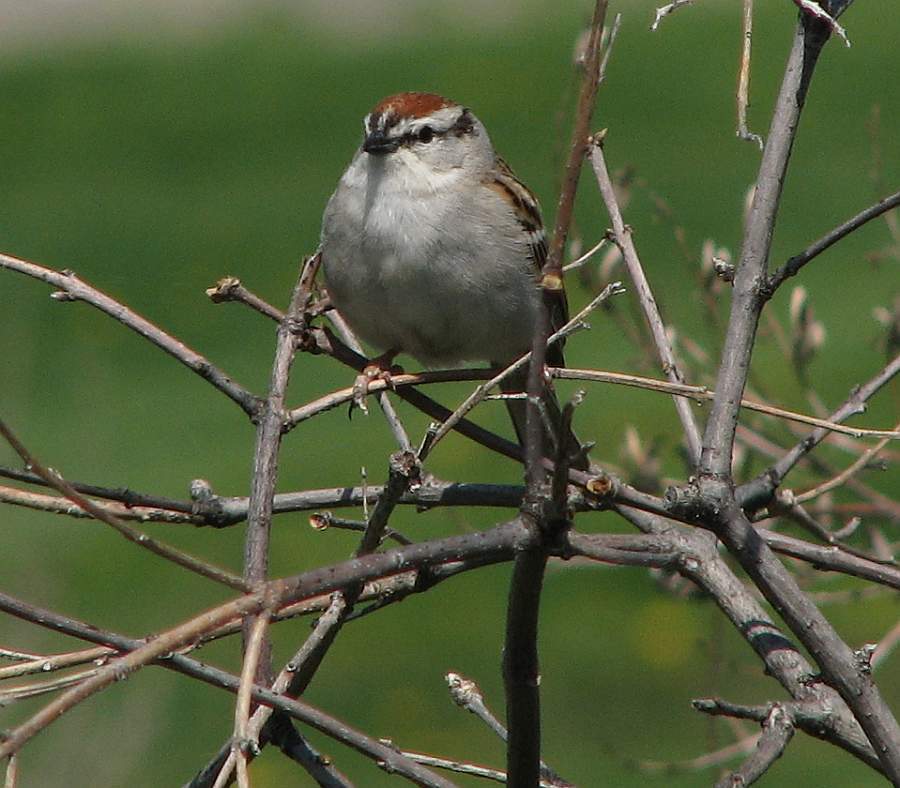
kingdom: Animalia
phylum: Chordata
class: Aves
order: Passeriformes
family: Passerellidae
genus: Spizella
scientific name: Spizella passerina
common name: Chipping sparrow
